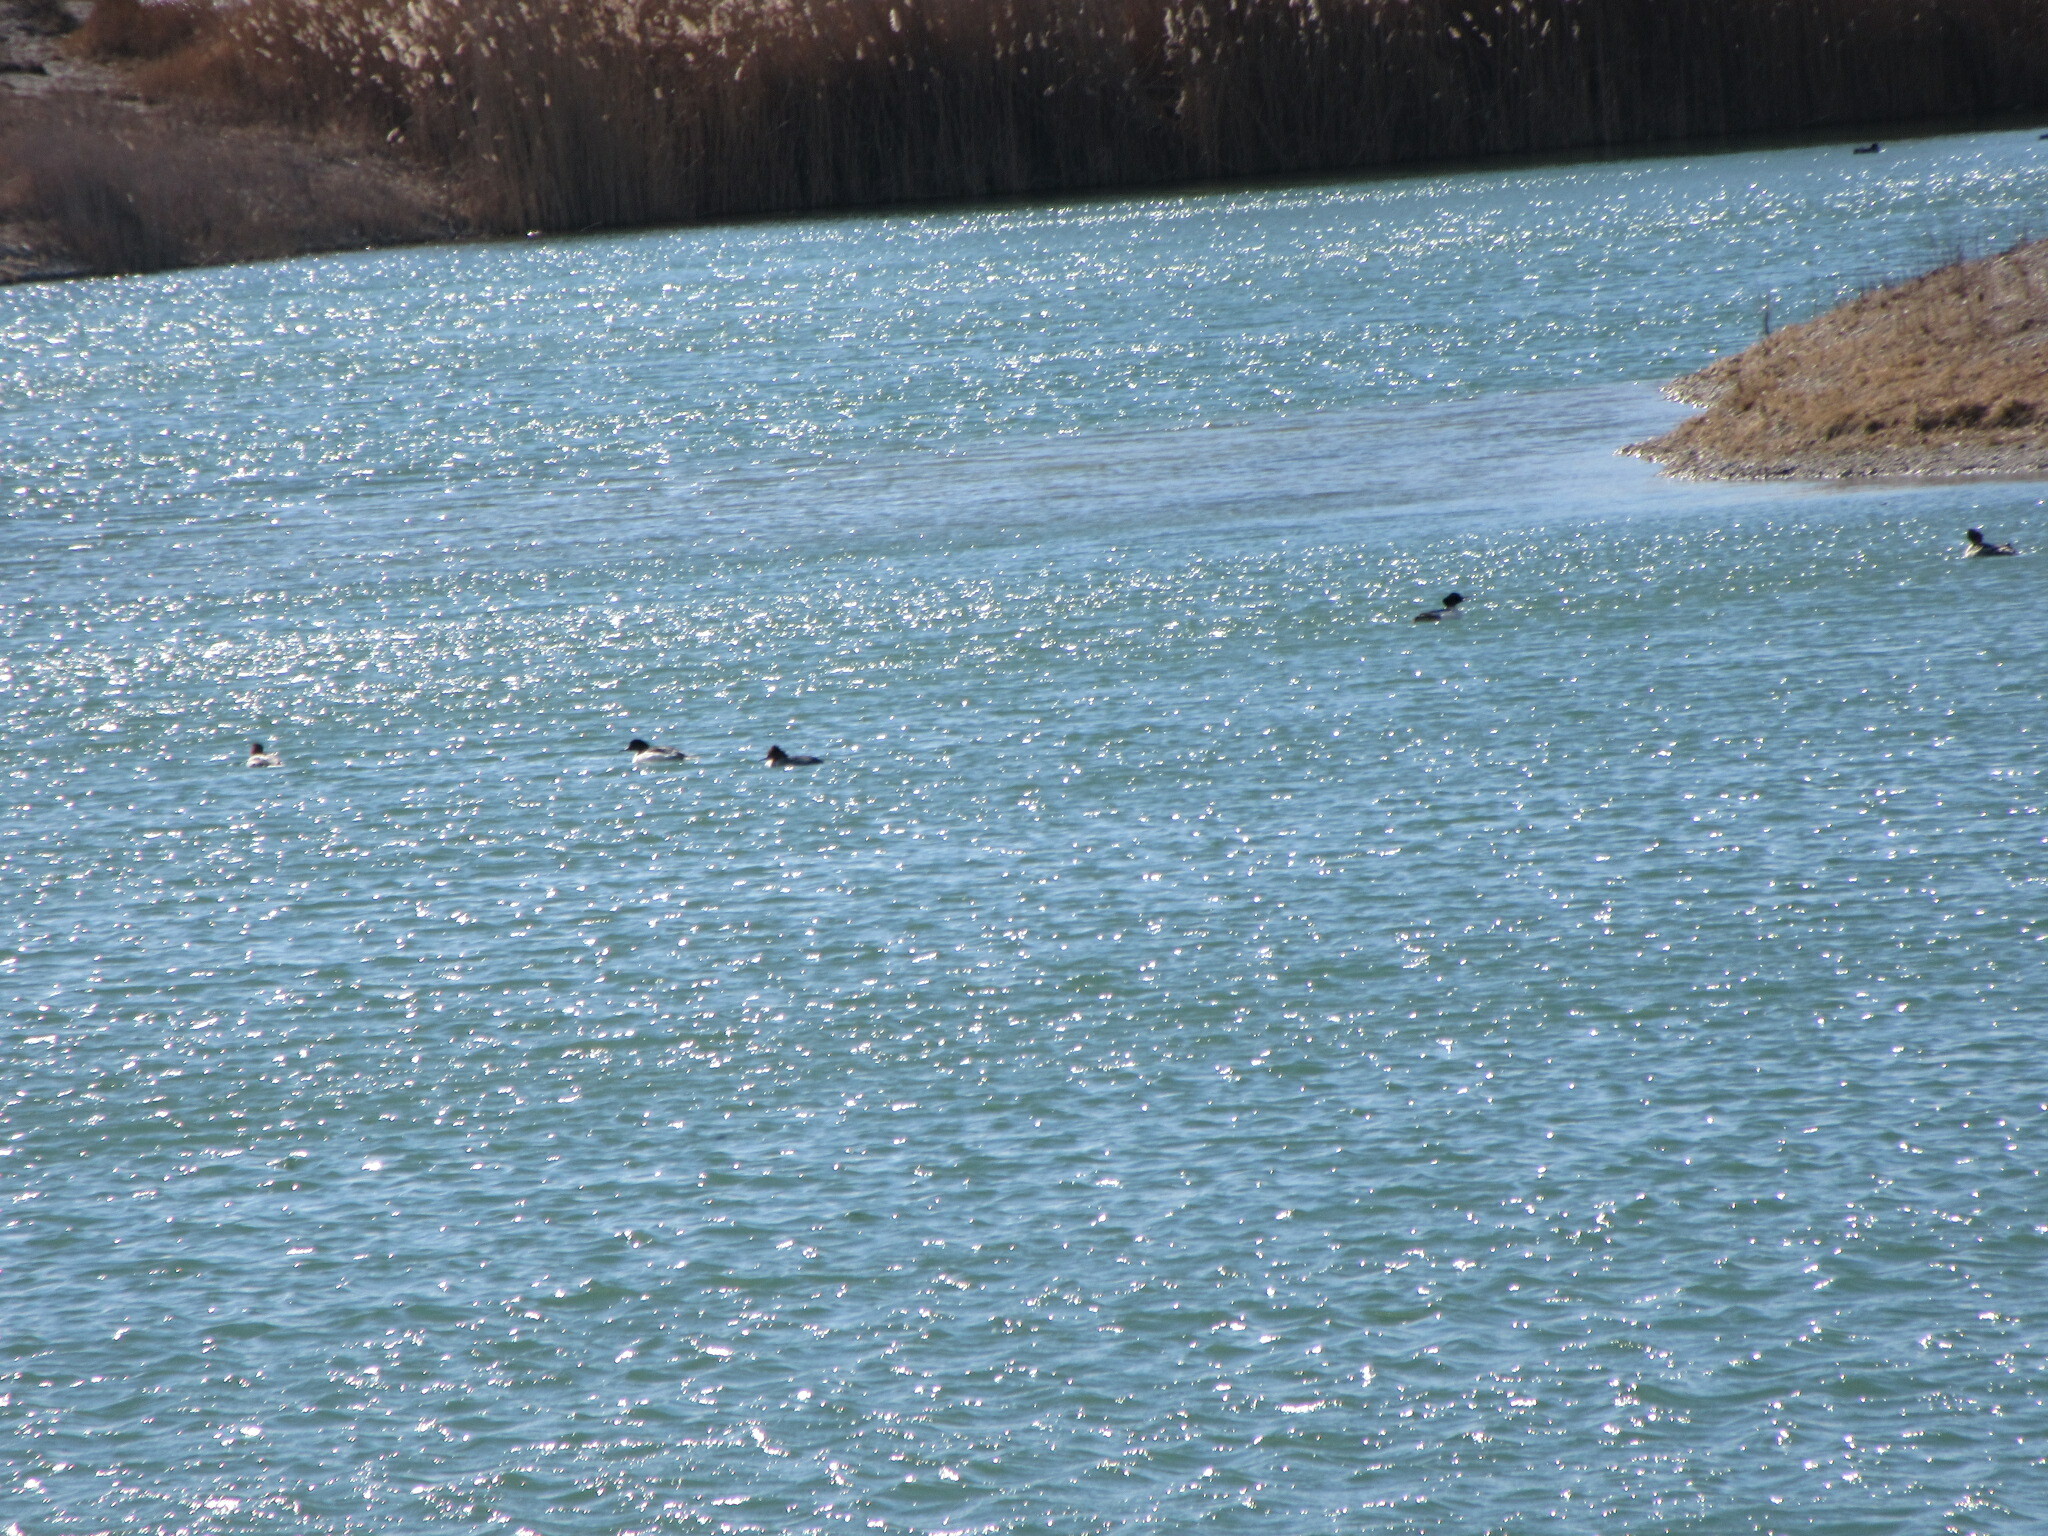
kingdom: Animalia
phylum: Chordata
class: Aves
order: Anseriformes
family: Anatidae
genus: Mergus
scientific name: Mergus merganser
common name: Common merganser
